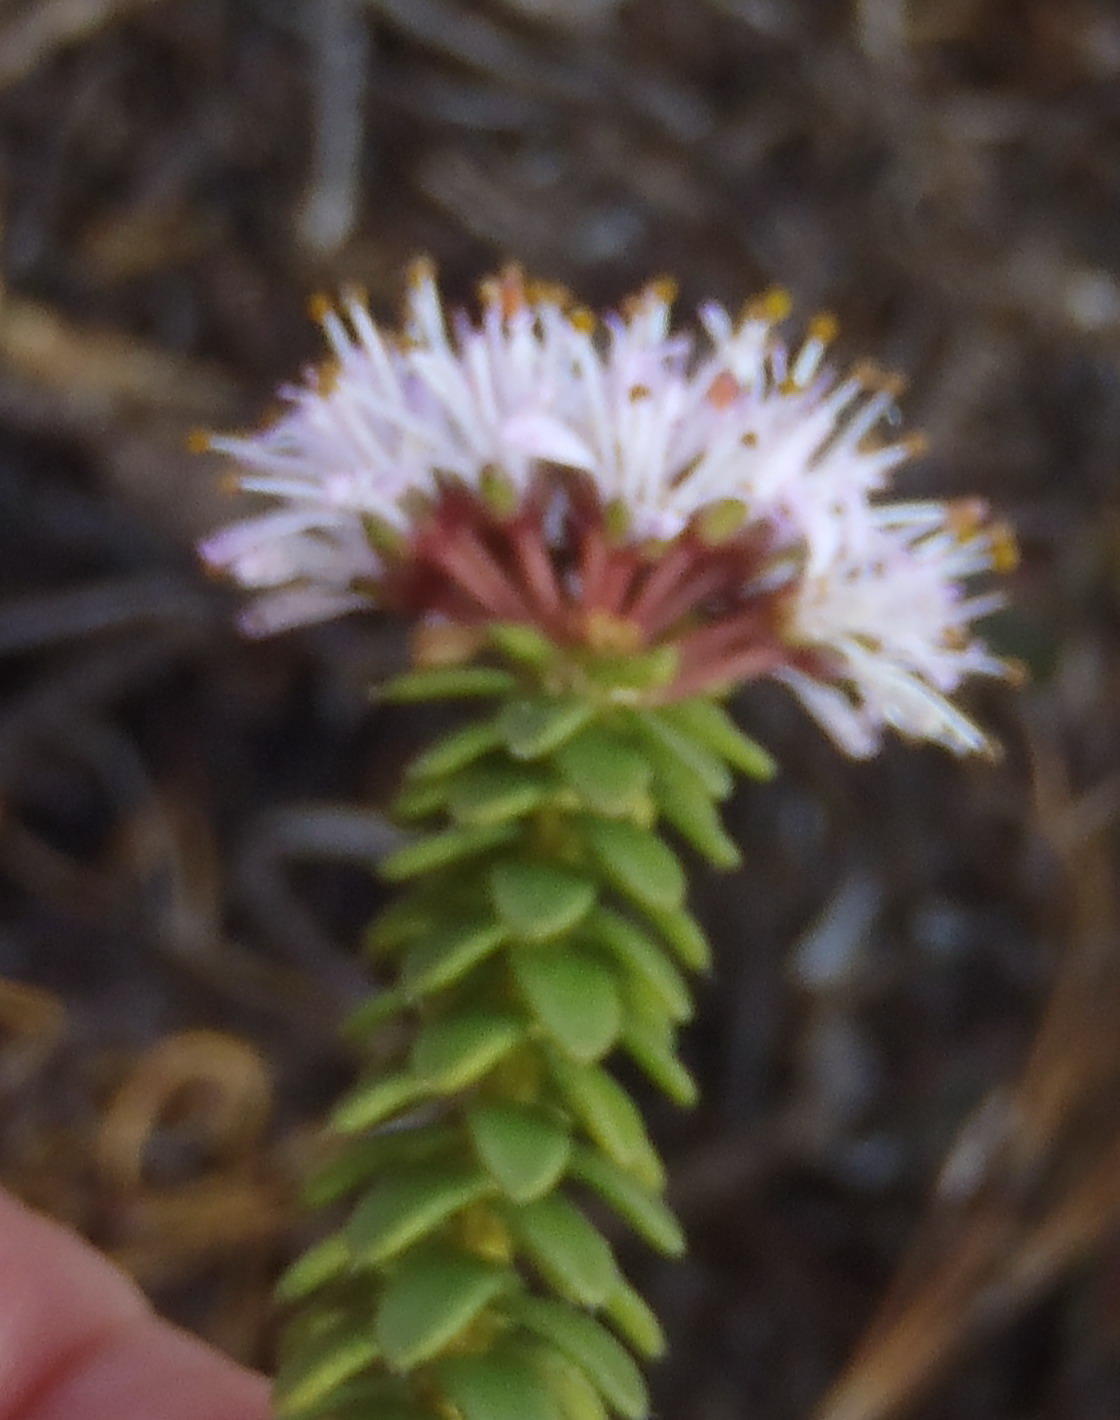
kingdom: Plantae
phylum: Tracheophyta
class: Magnoliopsida
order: Sapindales
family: Rutaceae
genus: Agathosma
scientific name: Agathosma ciliaris
